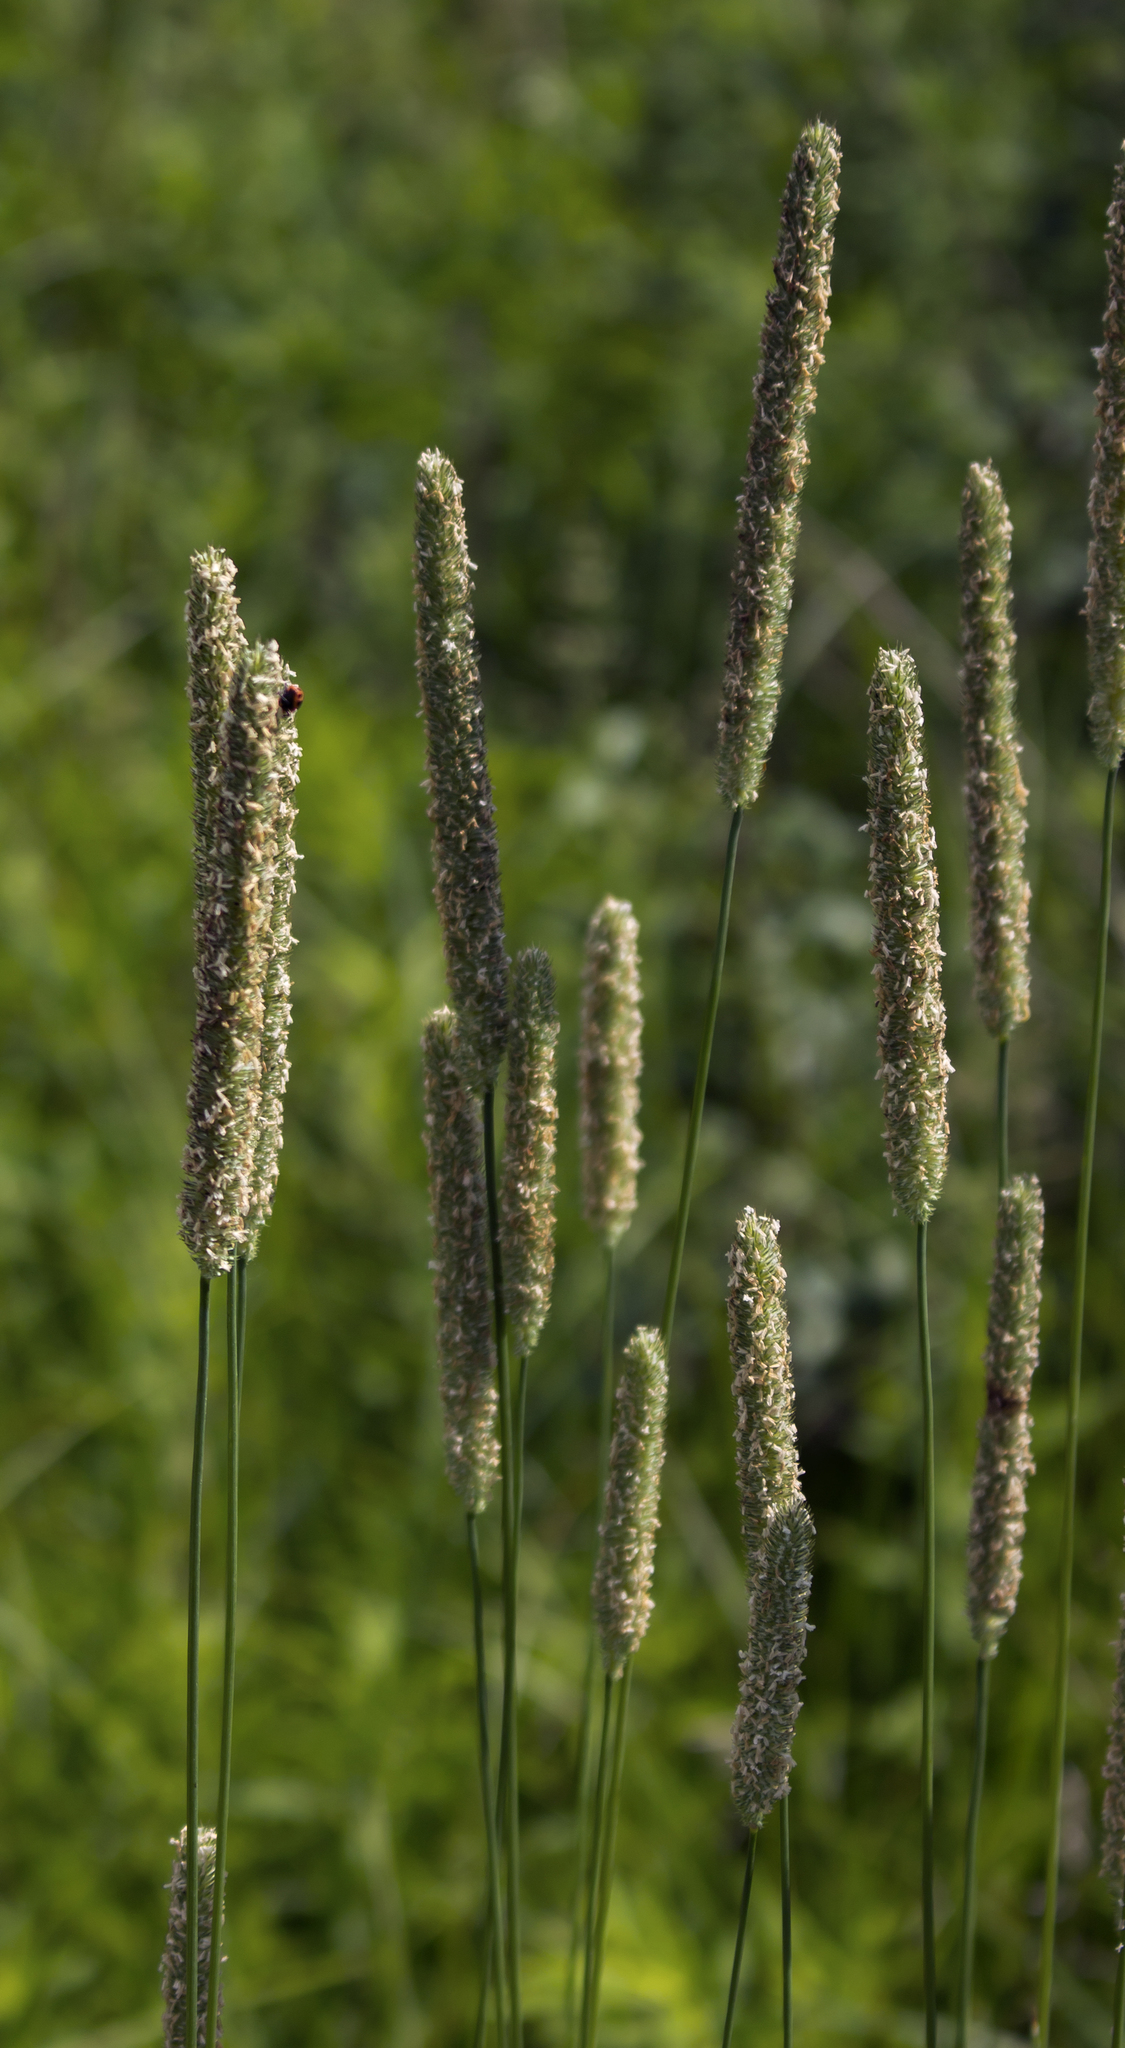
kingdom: Plantae
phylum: Tracheophyta
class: Liliopsida
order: Poales
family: Poaceae
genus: Phleum
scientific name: Phleum pratense
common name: Timothy grass
